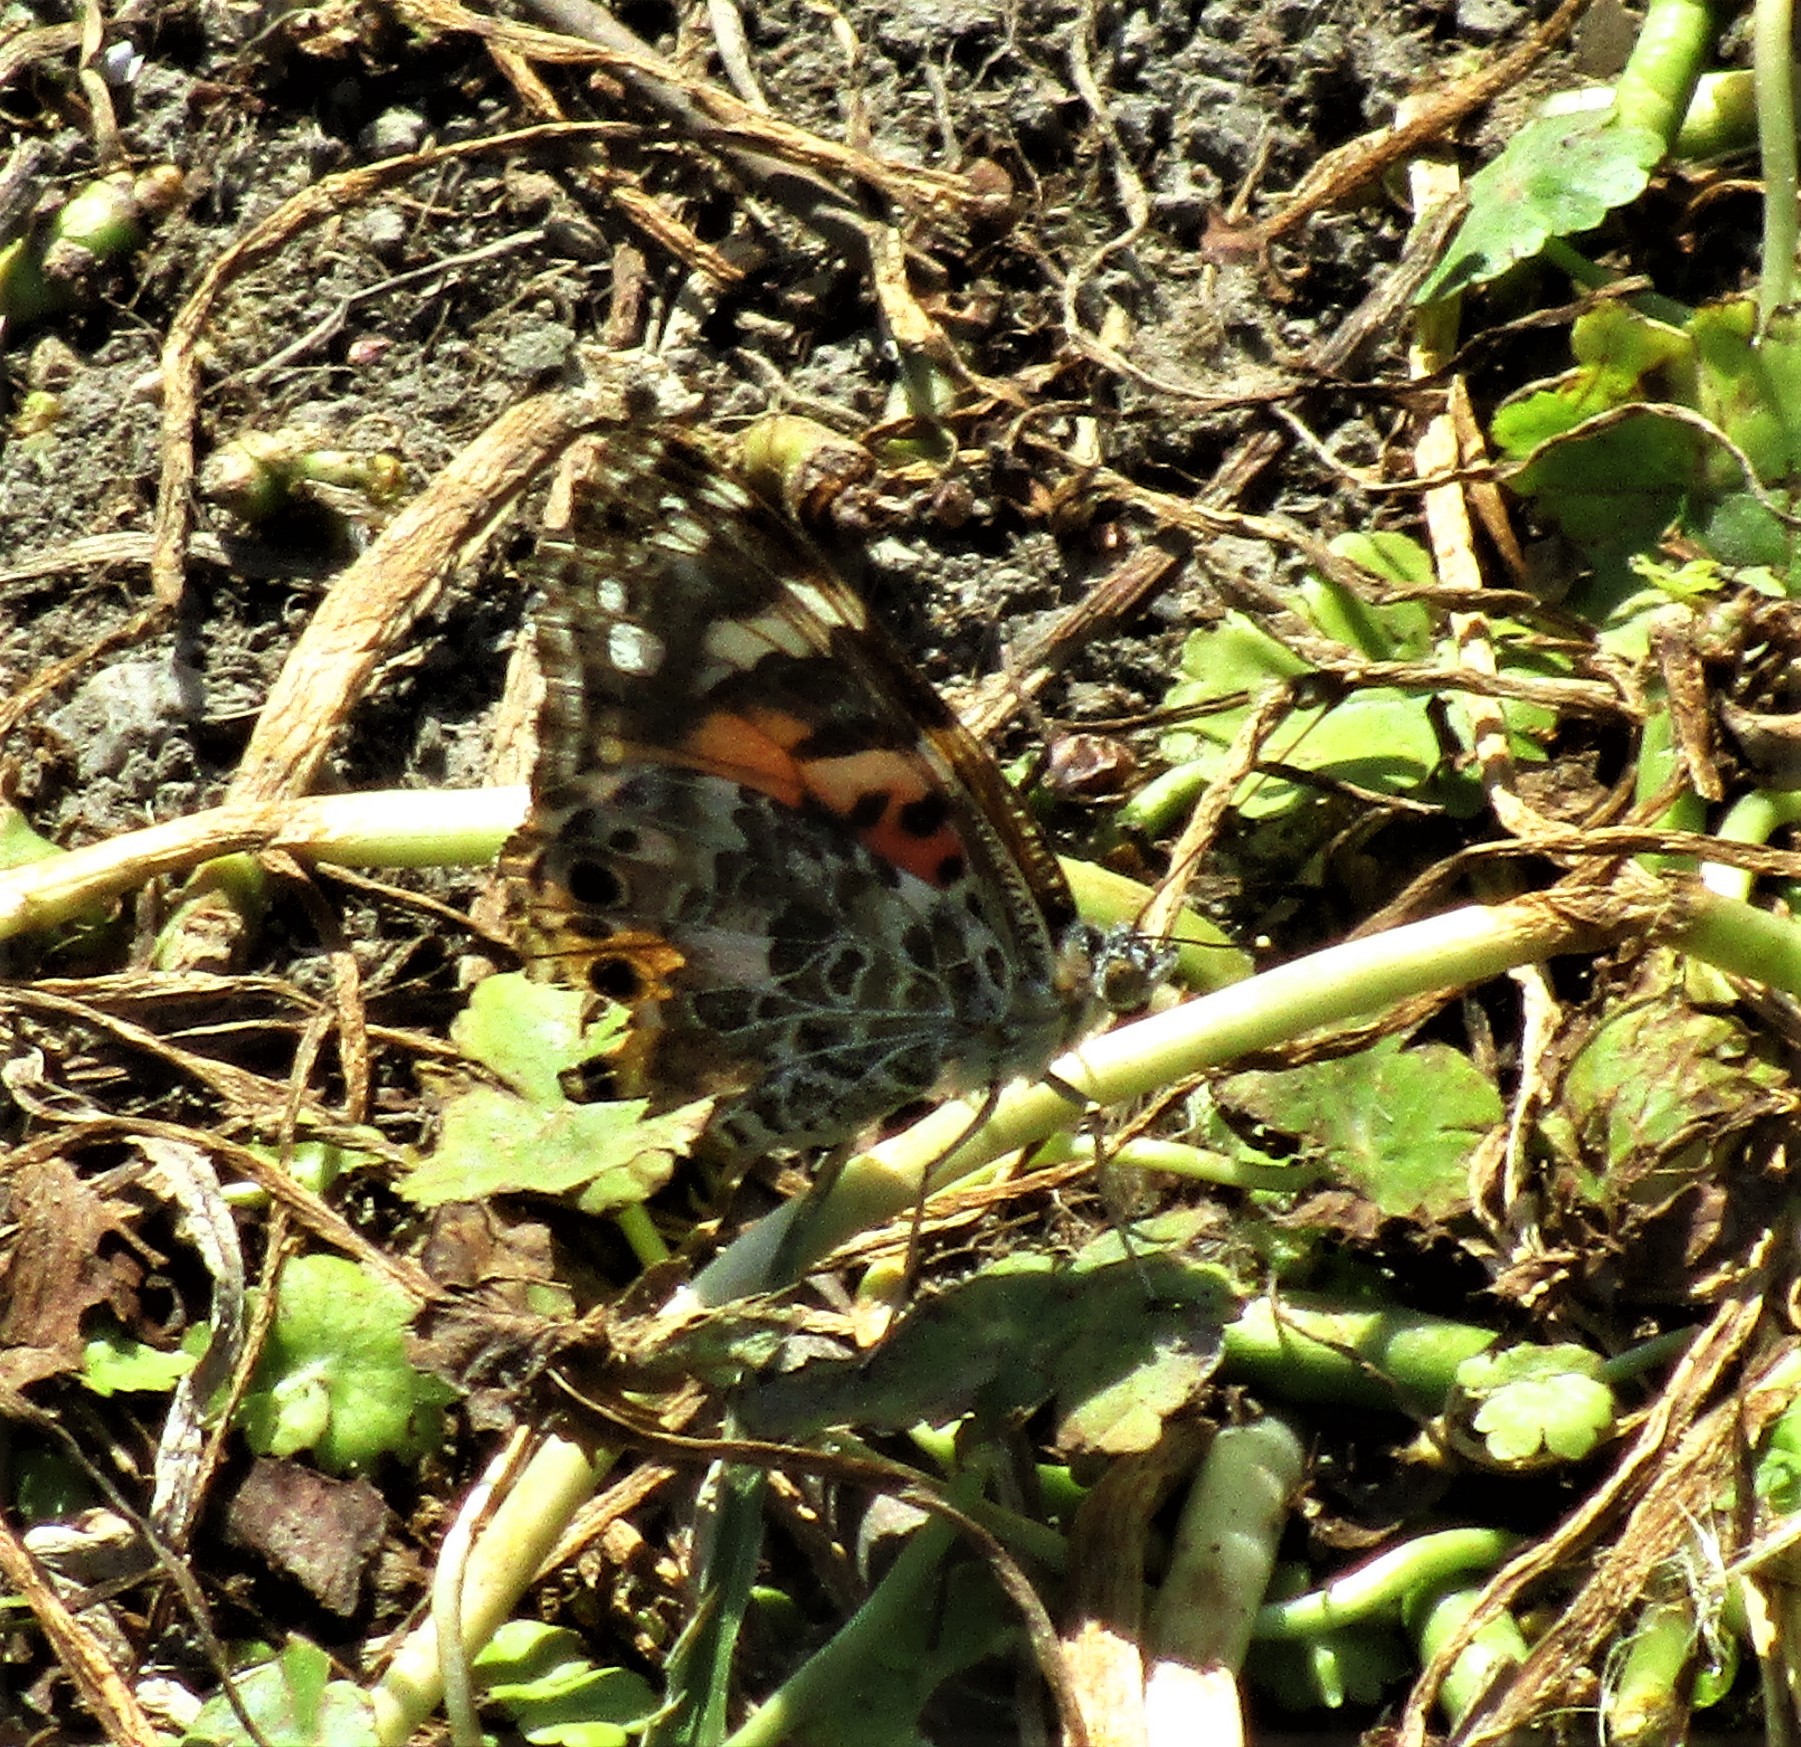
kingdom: Animalia
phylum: Arthropoda
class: Insecta
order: Lepidoptera
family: Nymphalidae
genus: Vanessa
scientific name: Vanessa cardui
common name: Painted lady
